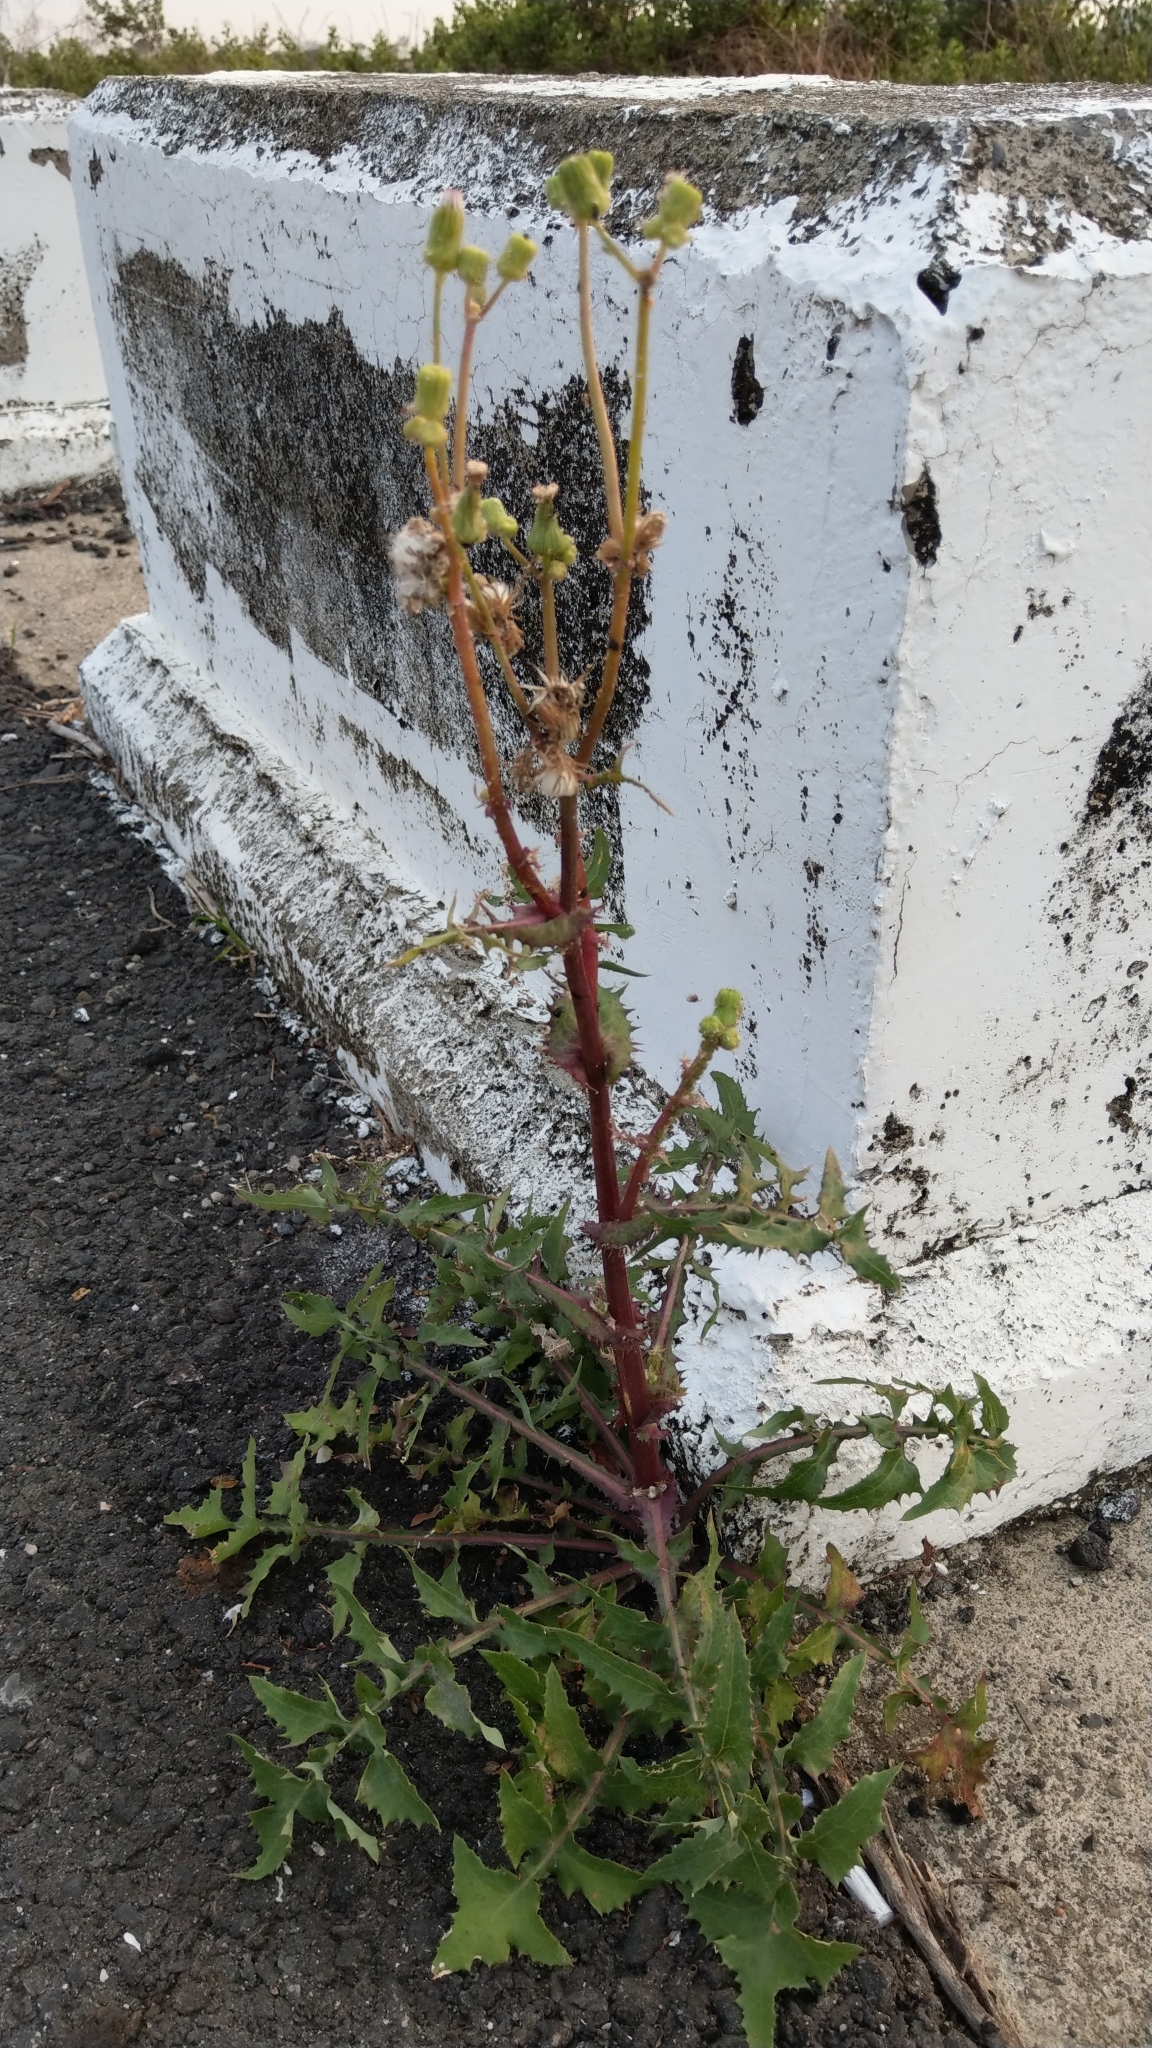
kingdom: Plantae
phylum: Tracheophyta
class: Magnoliopsida
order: Asterales
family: Asteraceae
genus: Sonchus
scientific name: Sonchus oleraceus
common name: Common sowthistle
